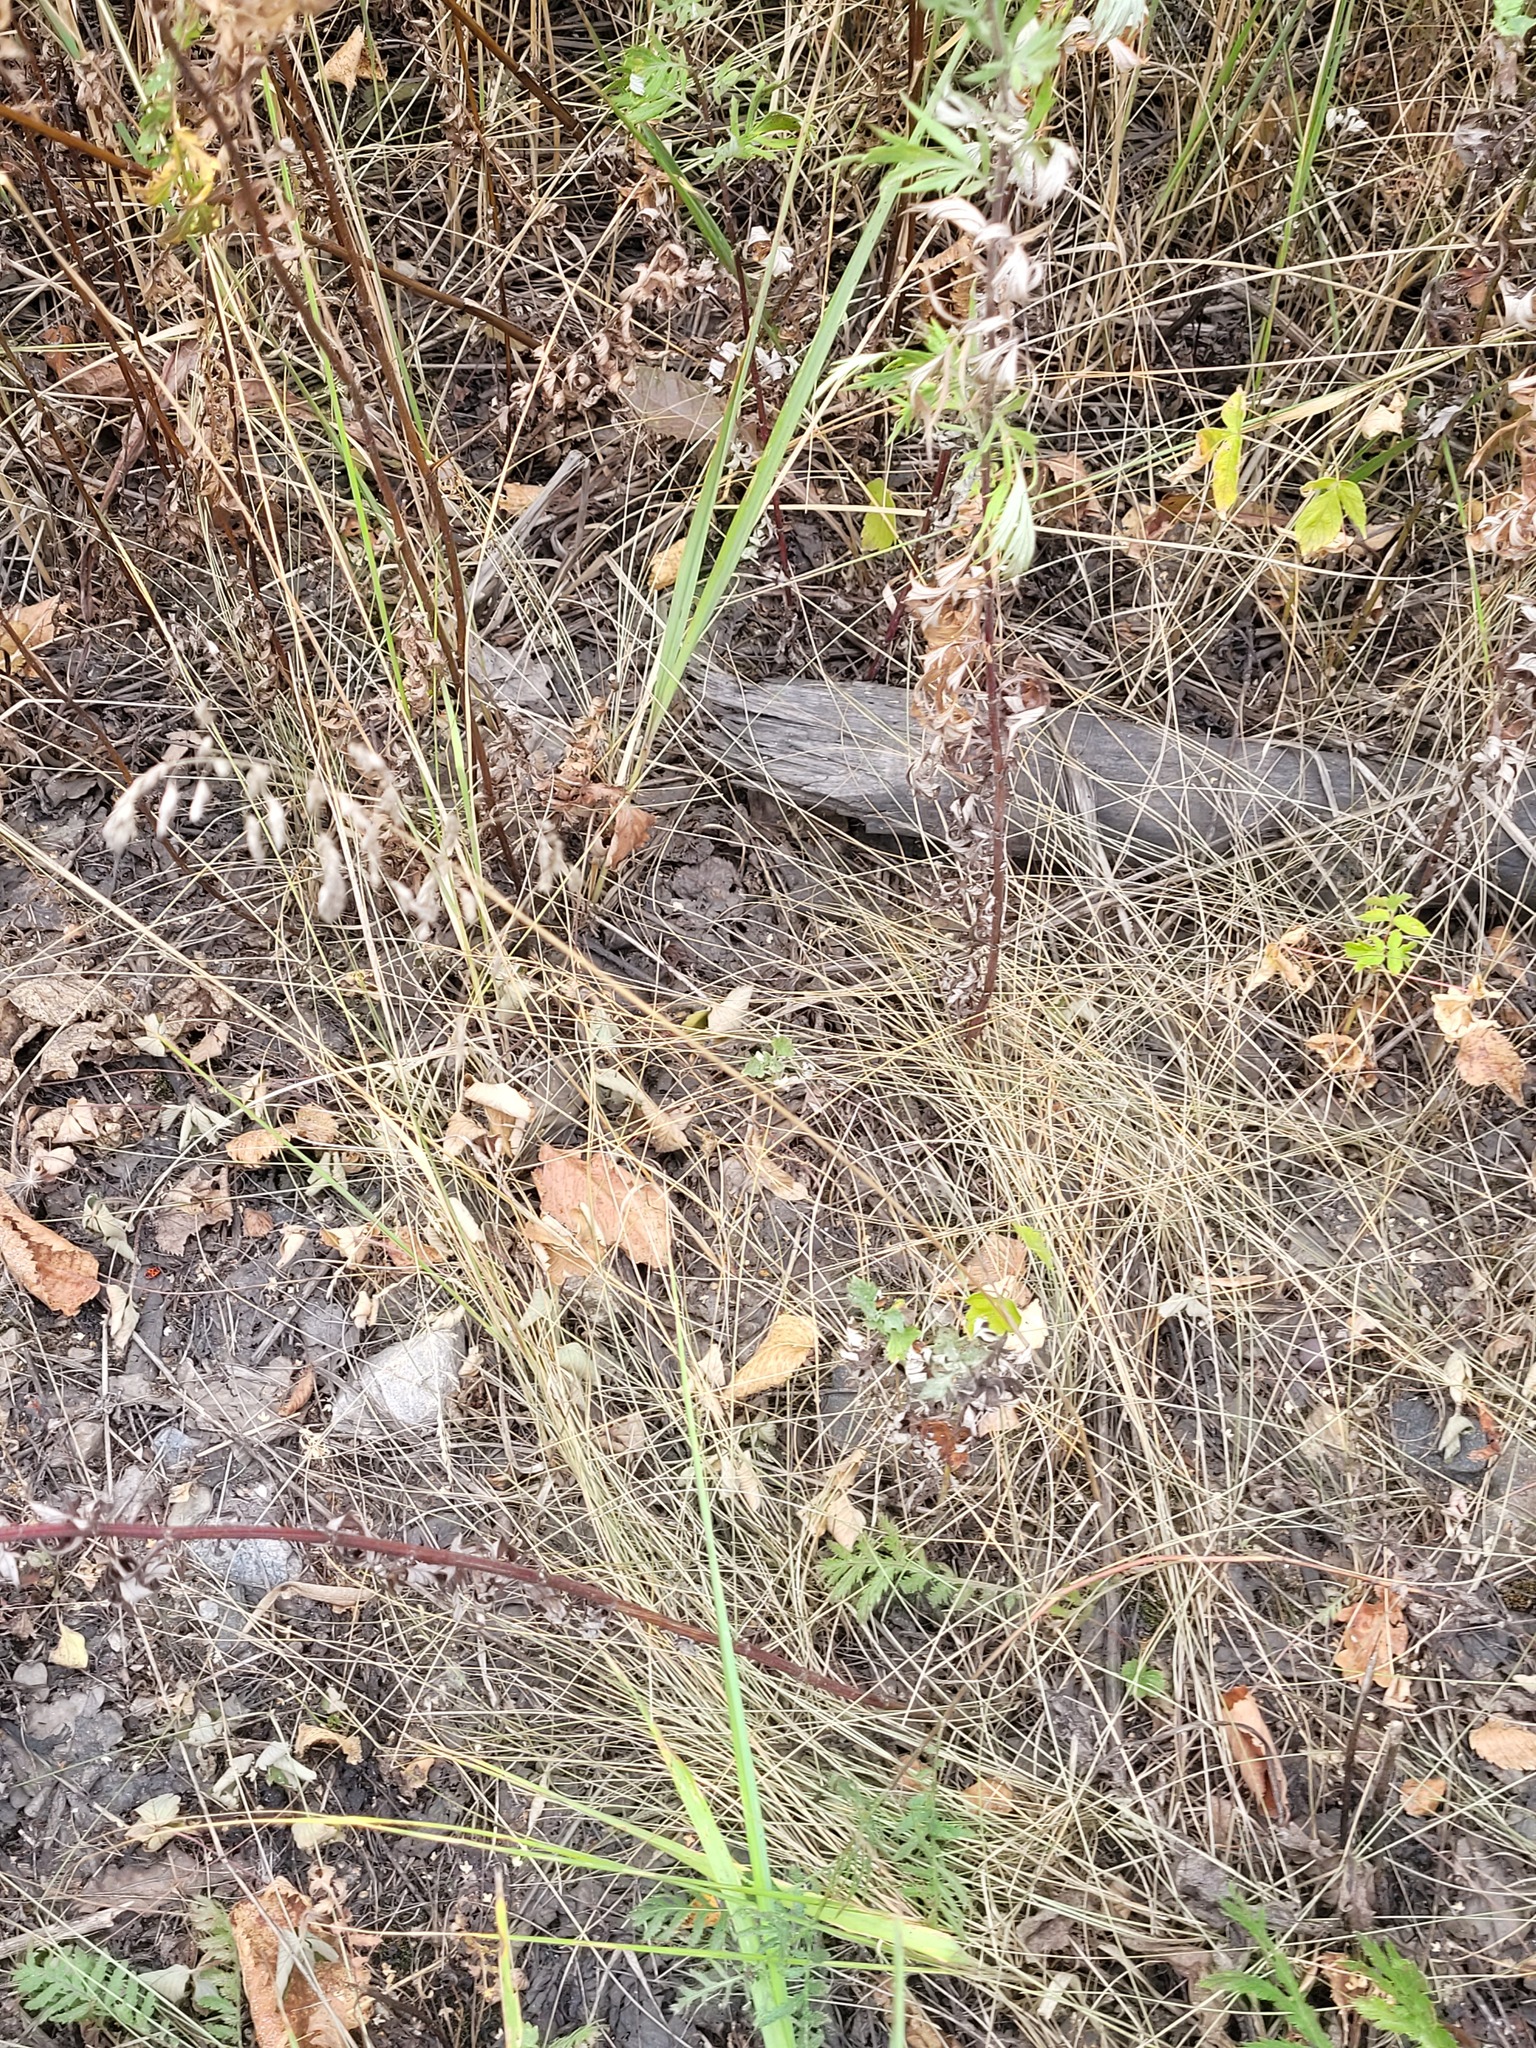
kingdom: Plantae
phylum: Tracheophyta
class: Liliopsida
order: Poales
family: Poaceae
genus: Poa
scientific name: Poa angustifolia
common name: Narrow-leaved meadow-grass
